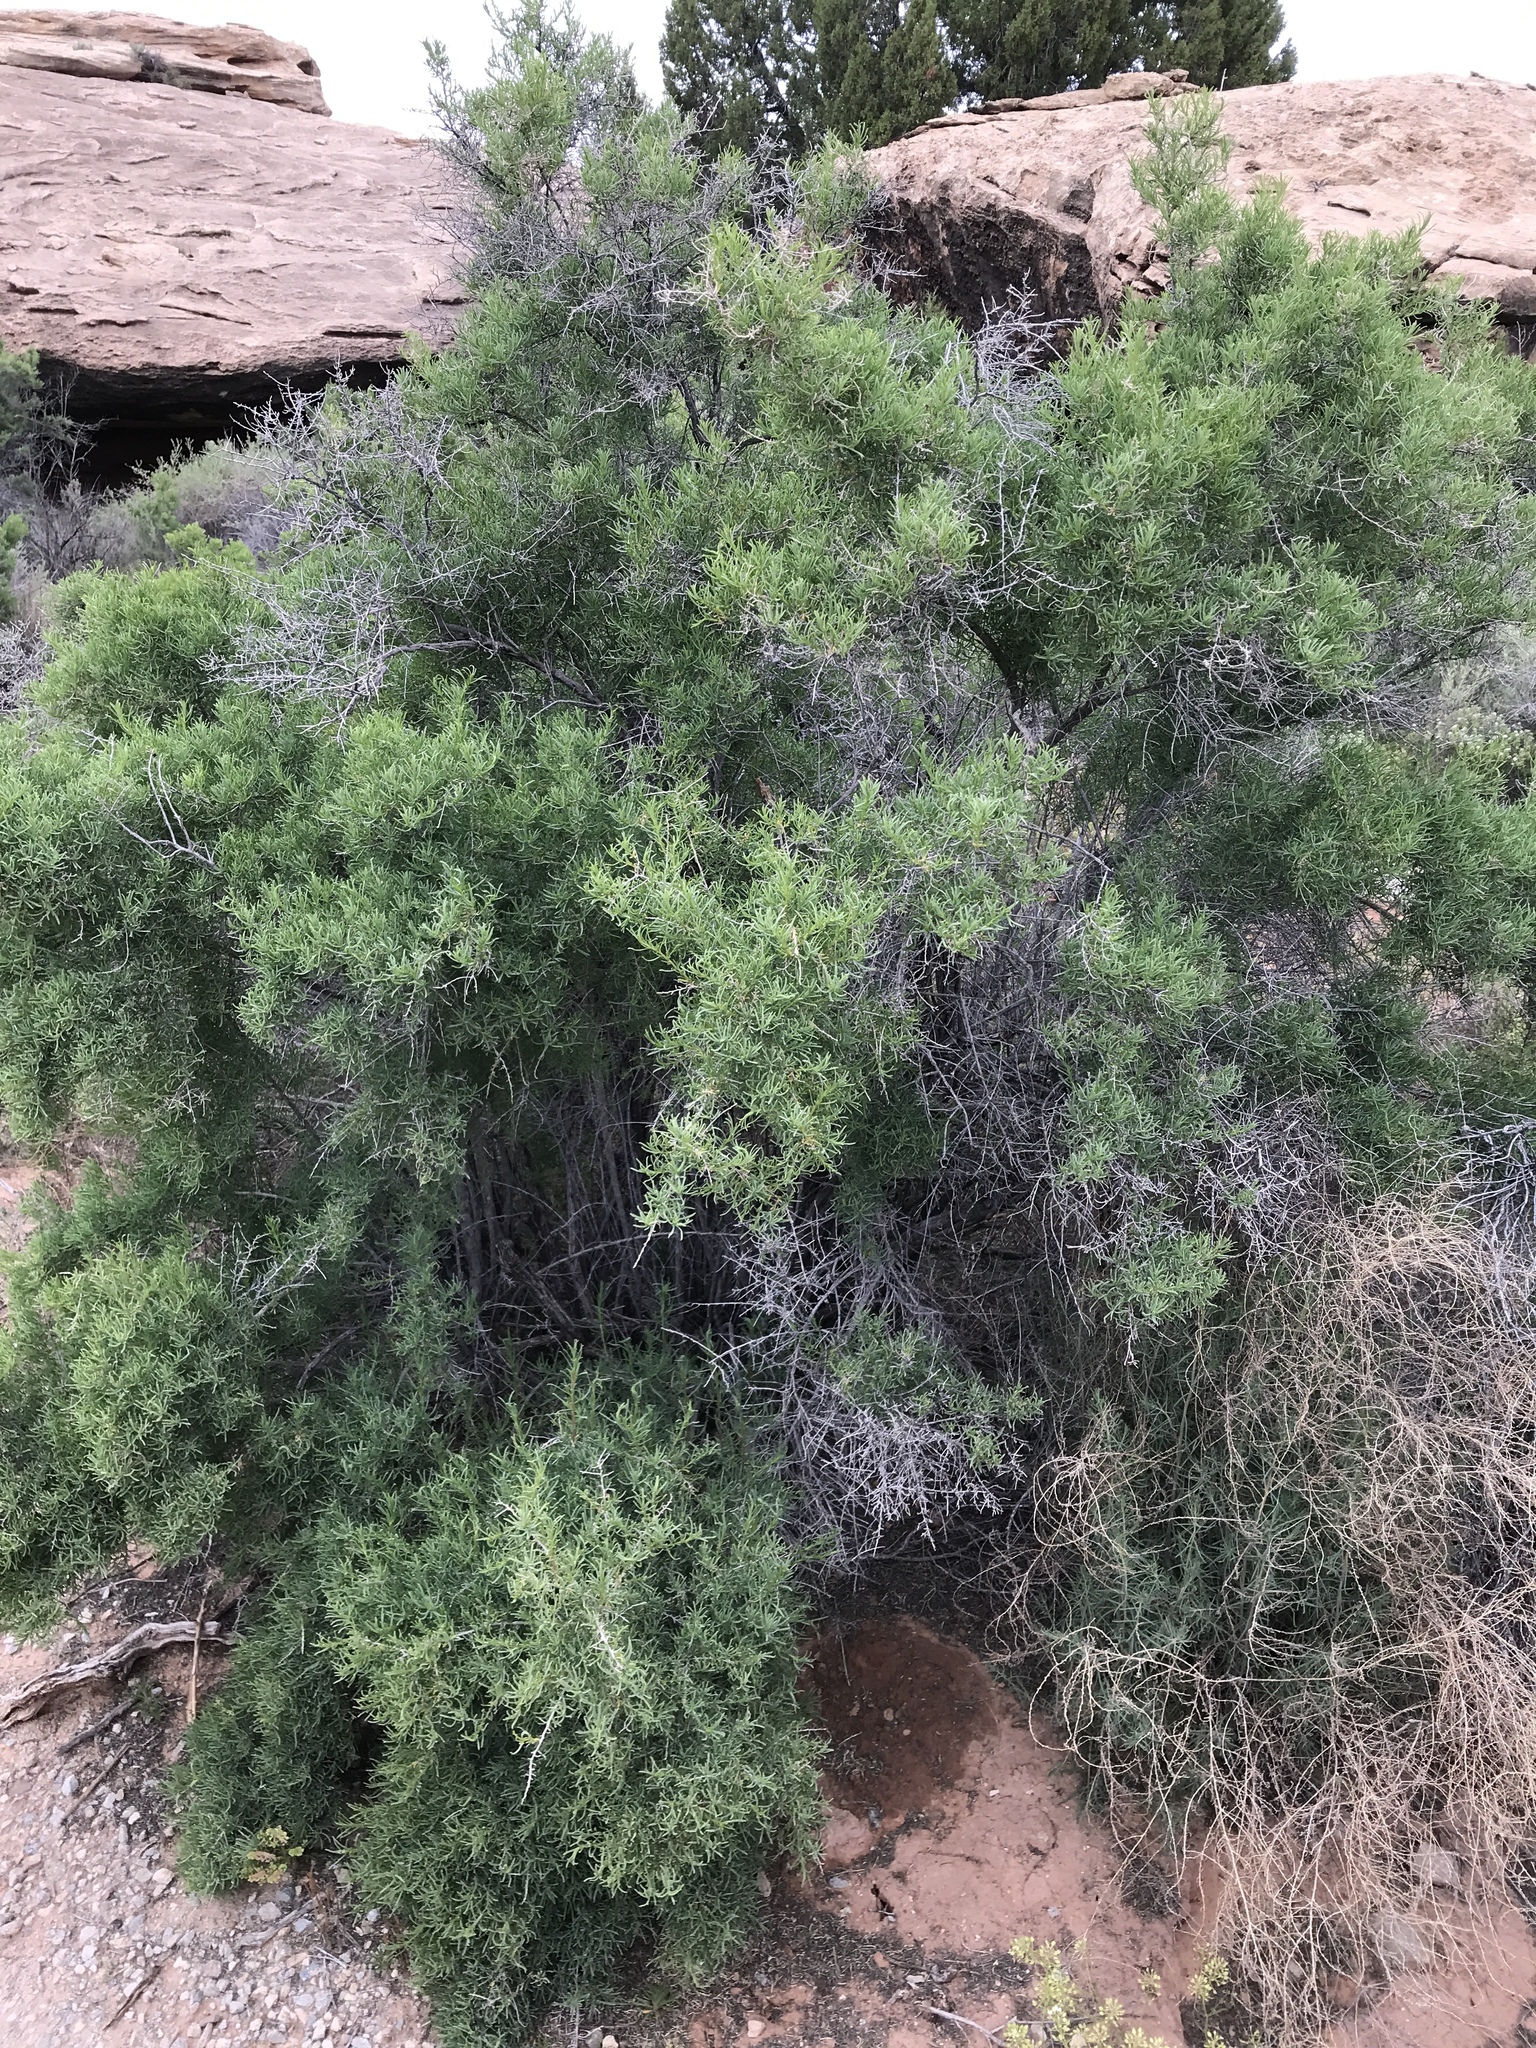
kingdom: Plantae
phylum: Tracheophyta
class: Magnoliopsida
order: Caryophyllales
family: Sarcobataceae
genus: Sarcobatus
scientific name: Sarcobatus vermiculatus
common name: Greasewood
